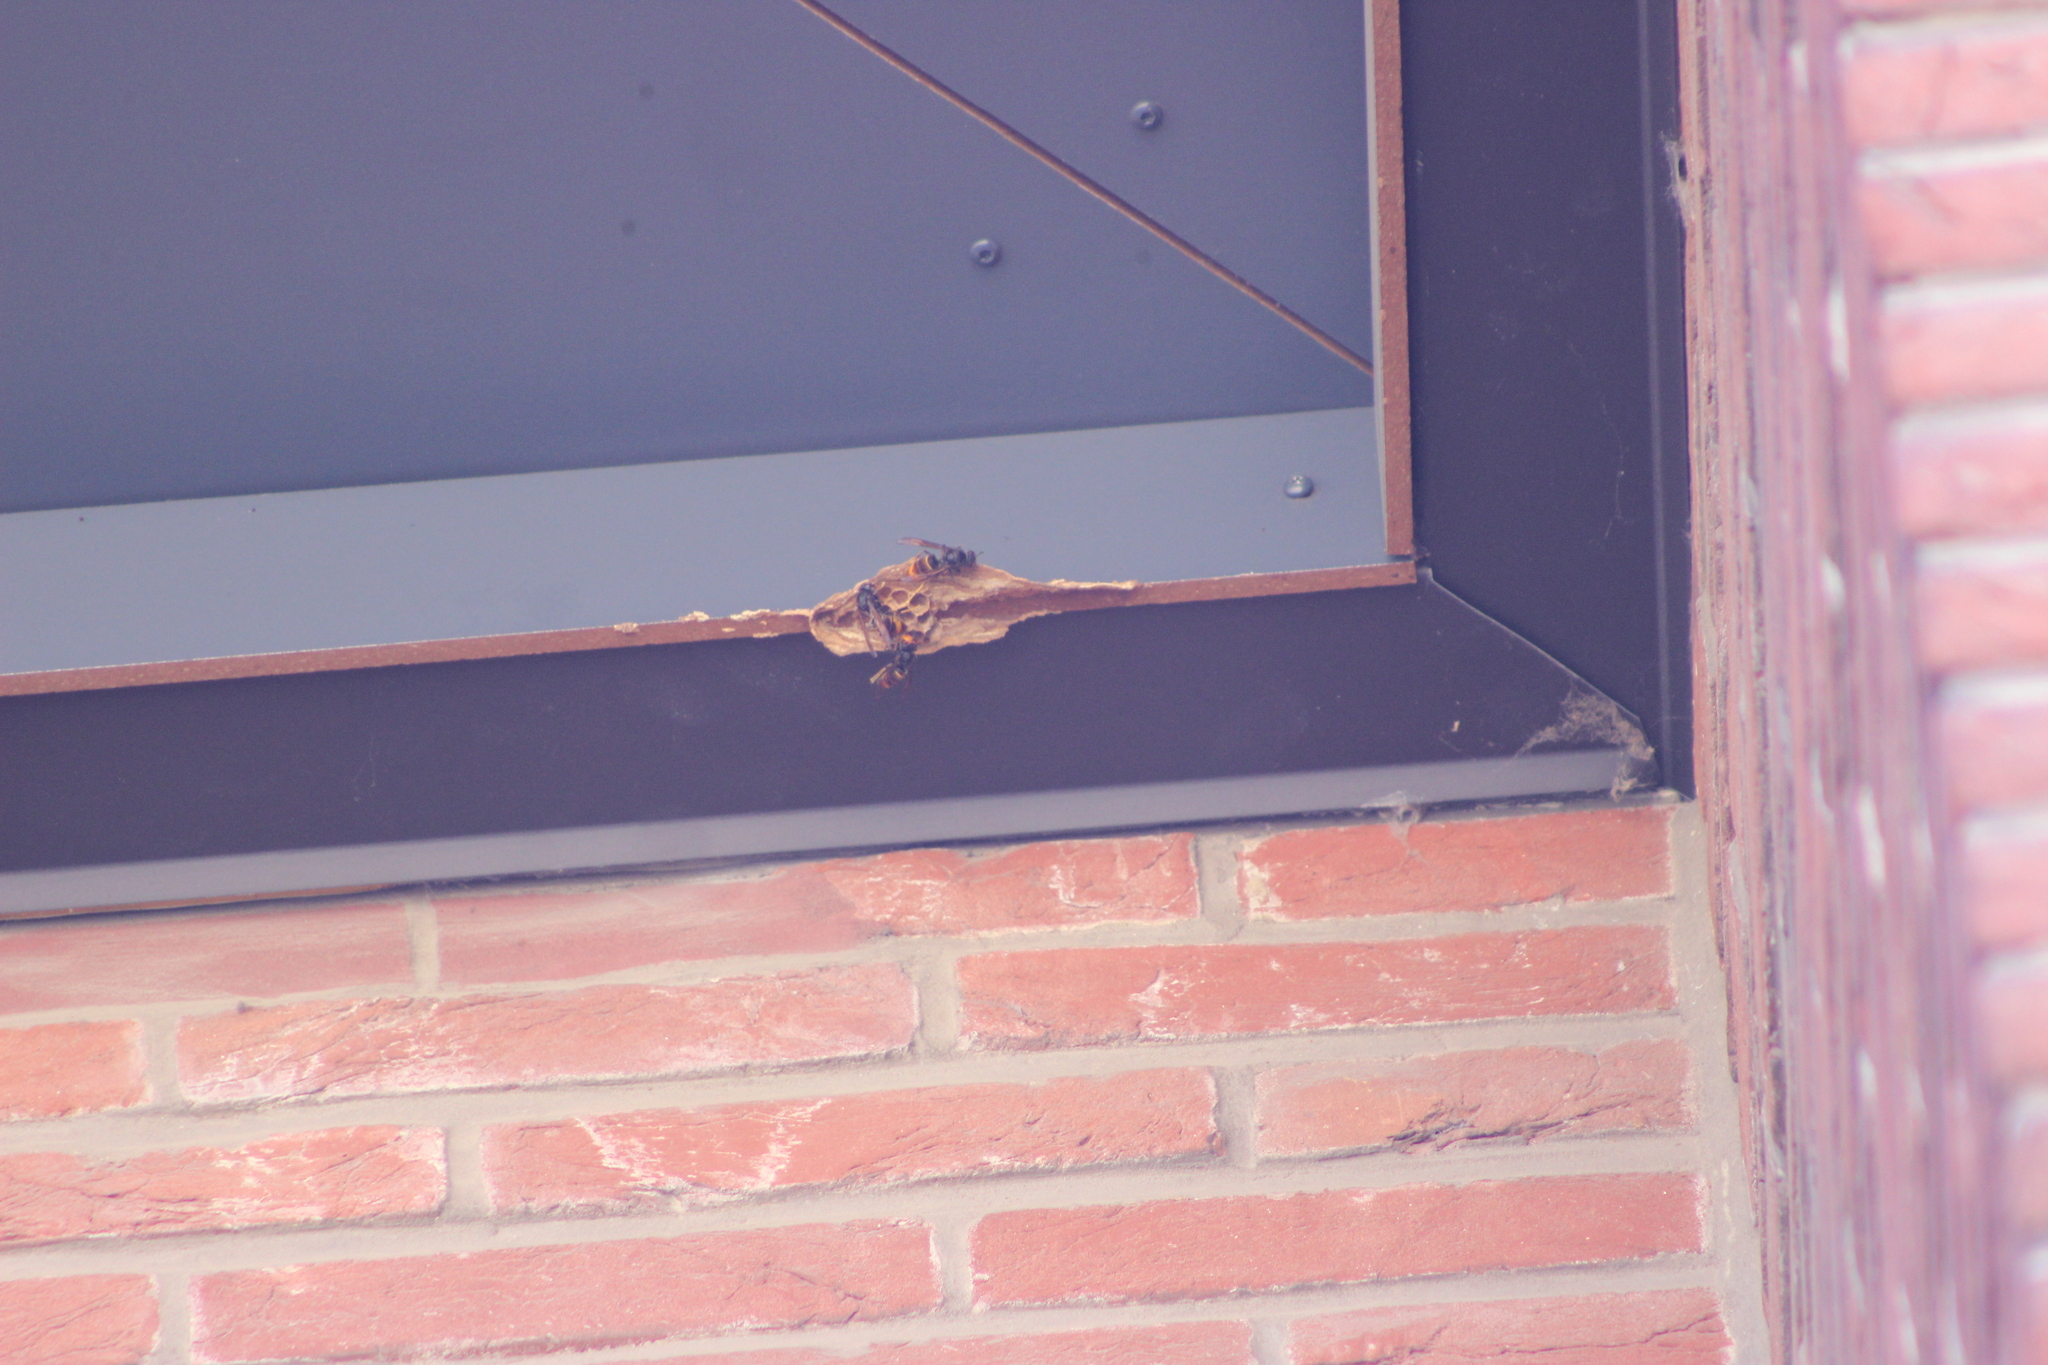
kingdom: Animalia
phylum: Arthropoda
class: Insecta
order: Hymenoptera
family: Vespidae
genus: Vespa
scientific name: Vespa velutina
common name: Asian hornet
